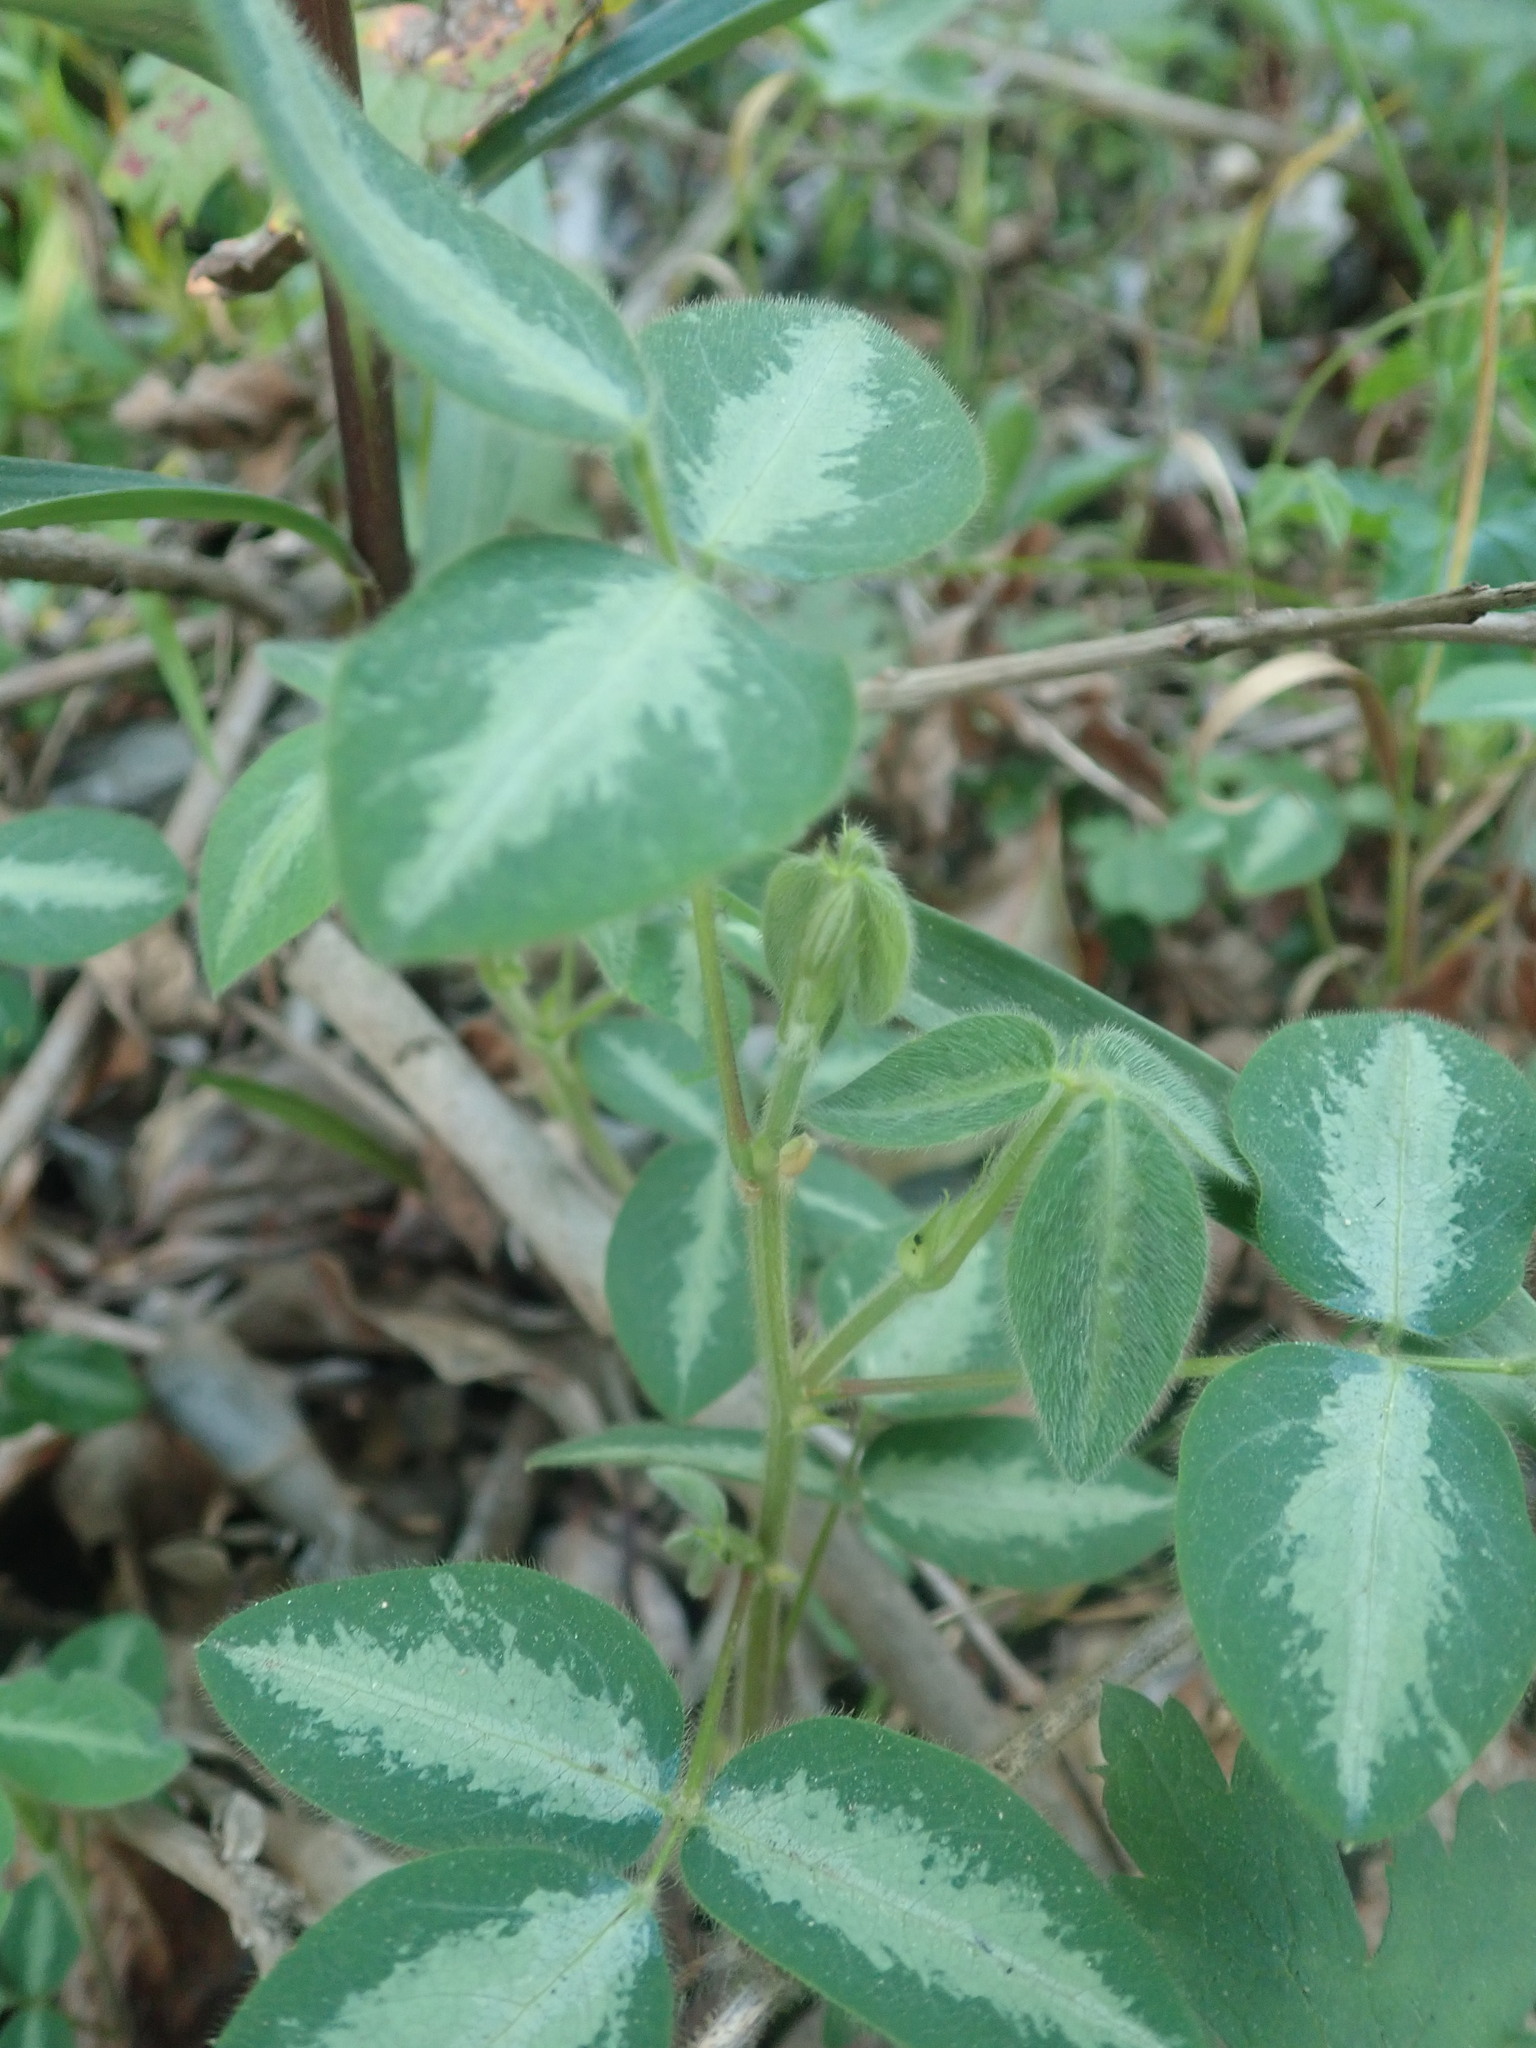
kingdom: Plantae
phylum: Tracheophyta
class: Magnoliopsida
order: Fabales
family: Fabaceae
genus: Desmodium
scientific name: Desmodium uncinatum
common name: Silverleaf desmodium
